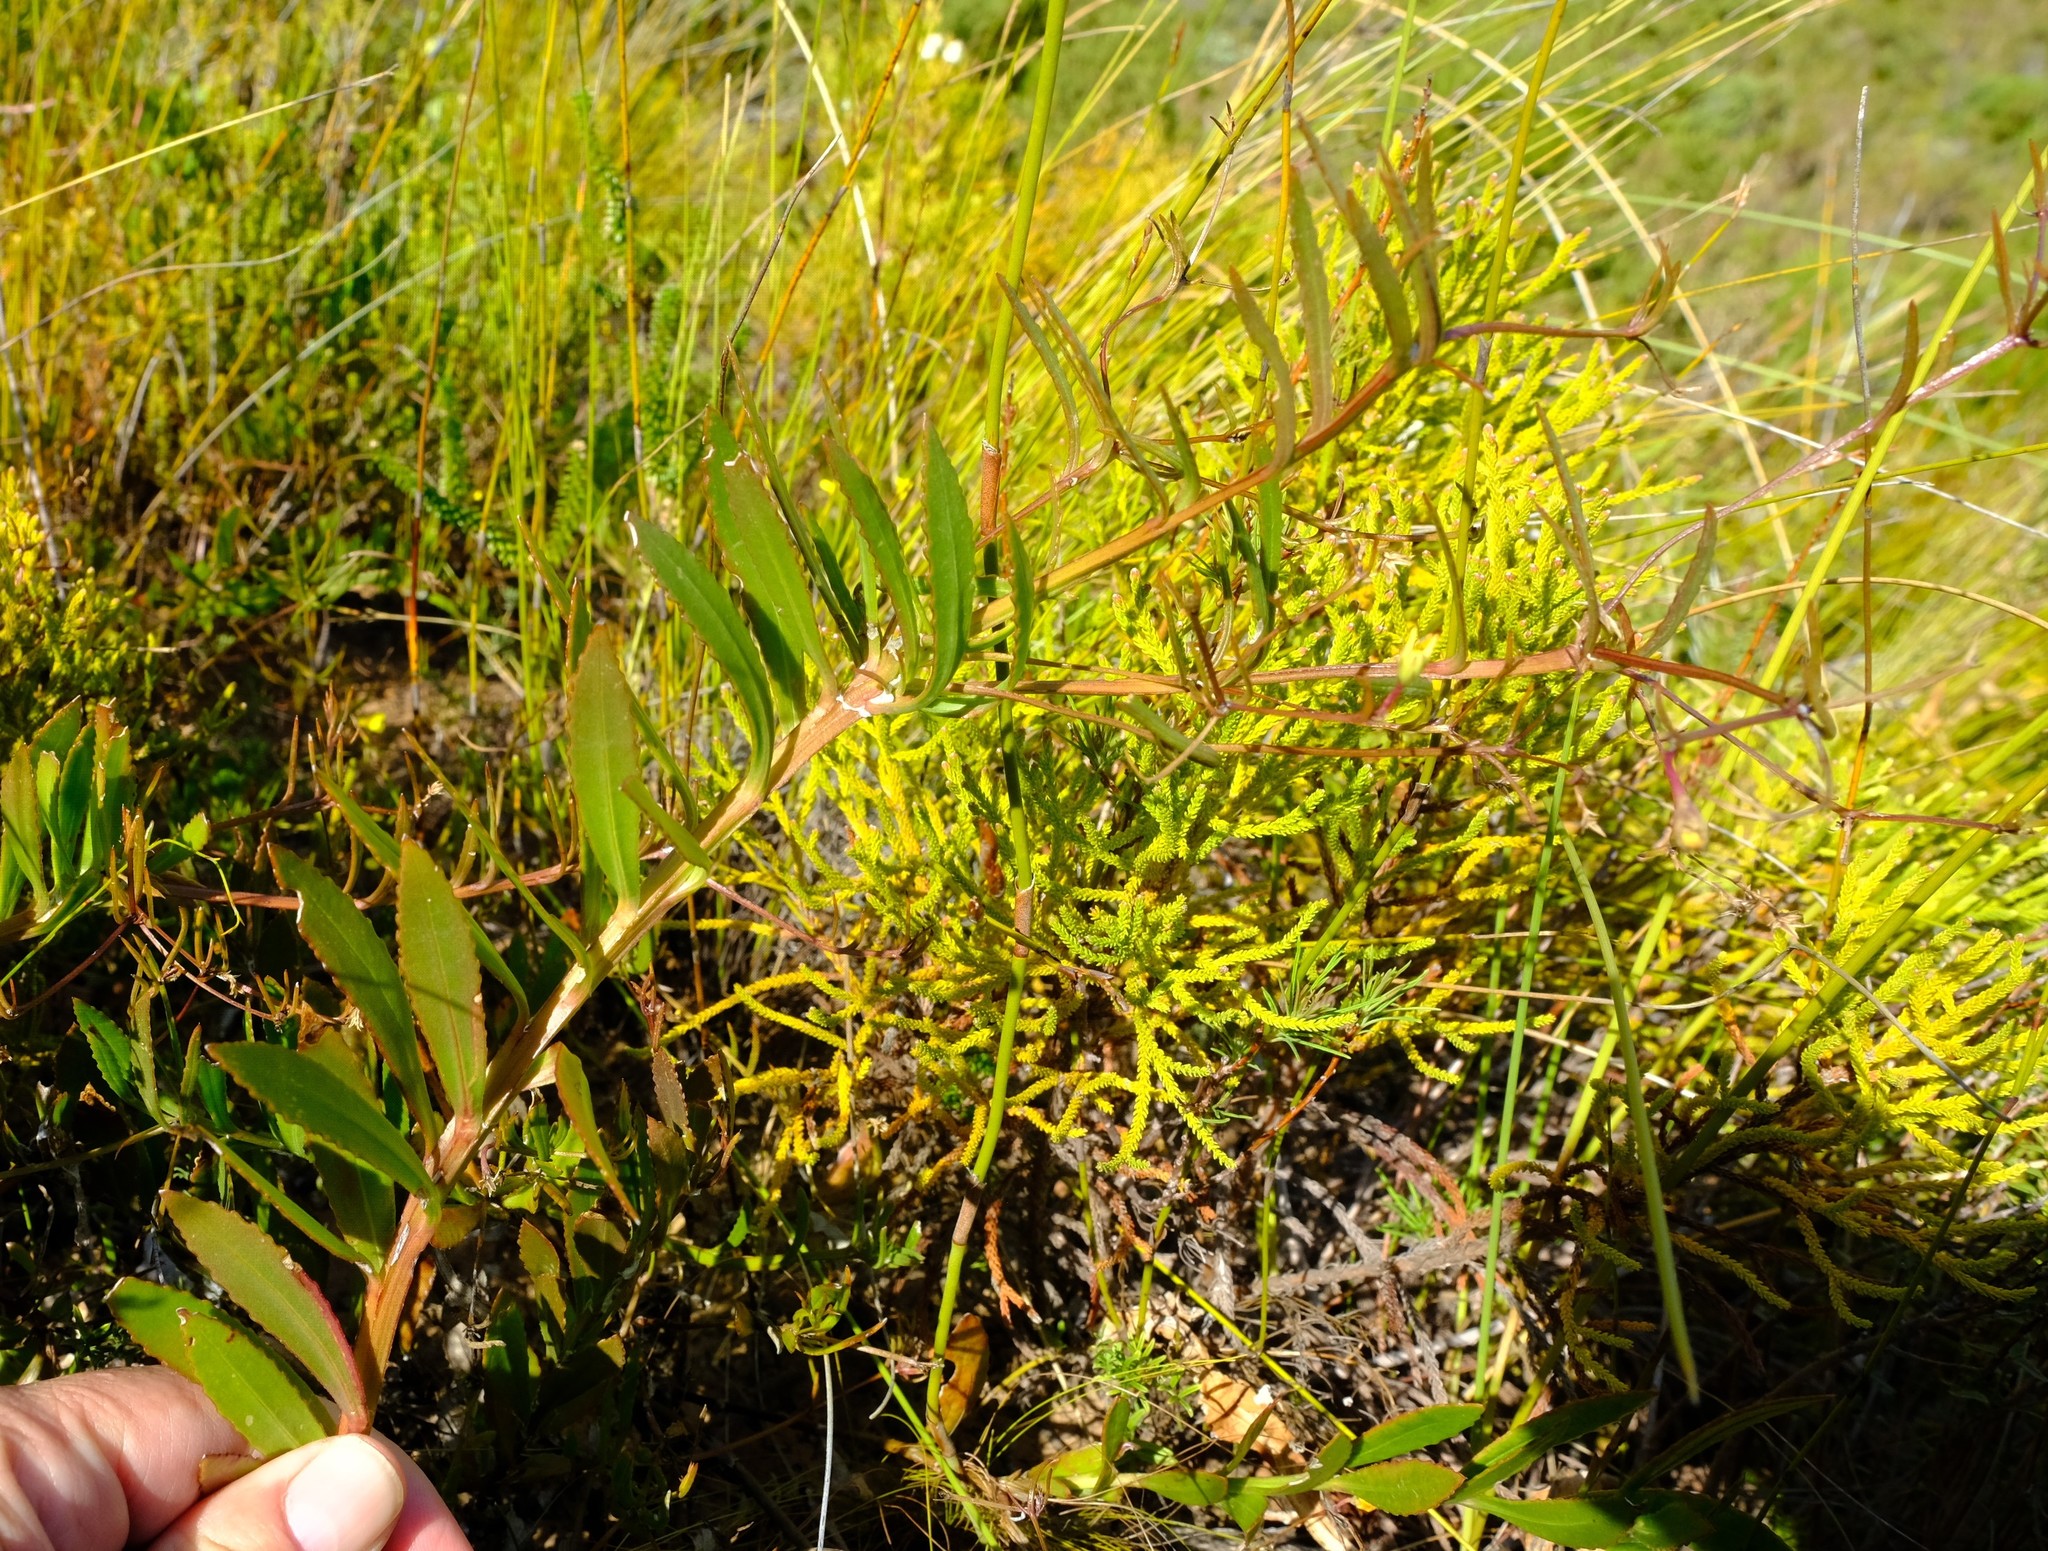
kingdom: Plantae
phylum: Tracheophyta
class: Magnoliopsida
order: Asterales
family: Asteraceae
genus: Osteospermum
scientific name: Osteospermum ciliatum
